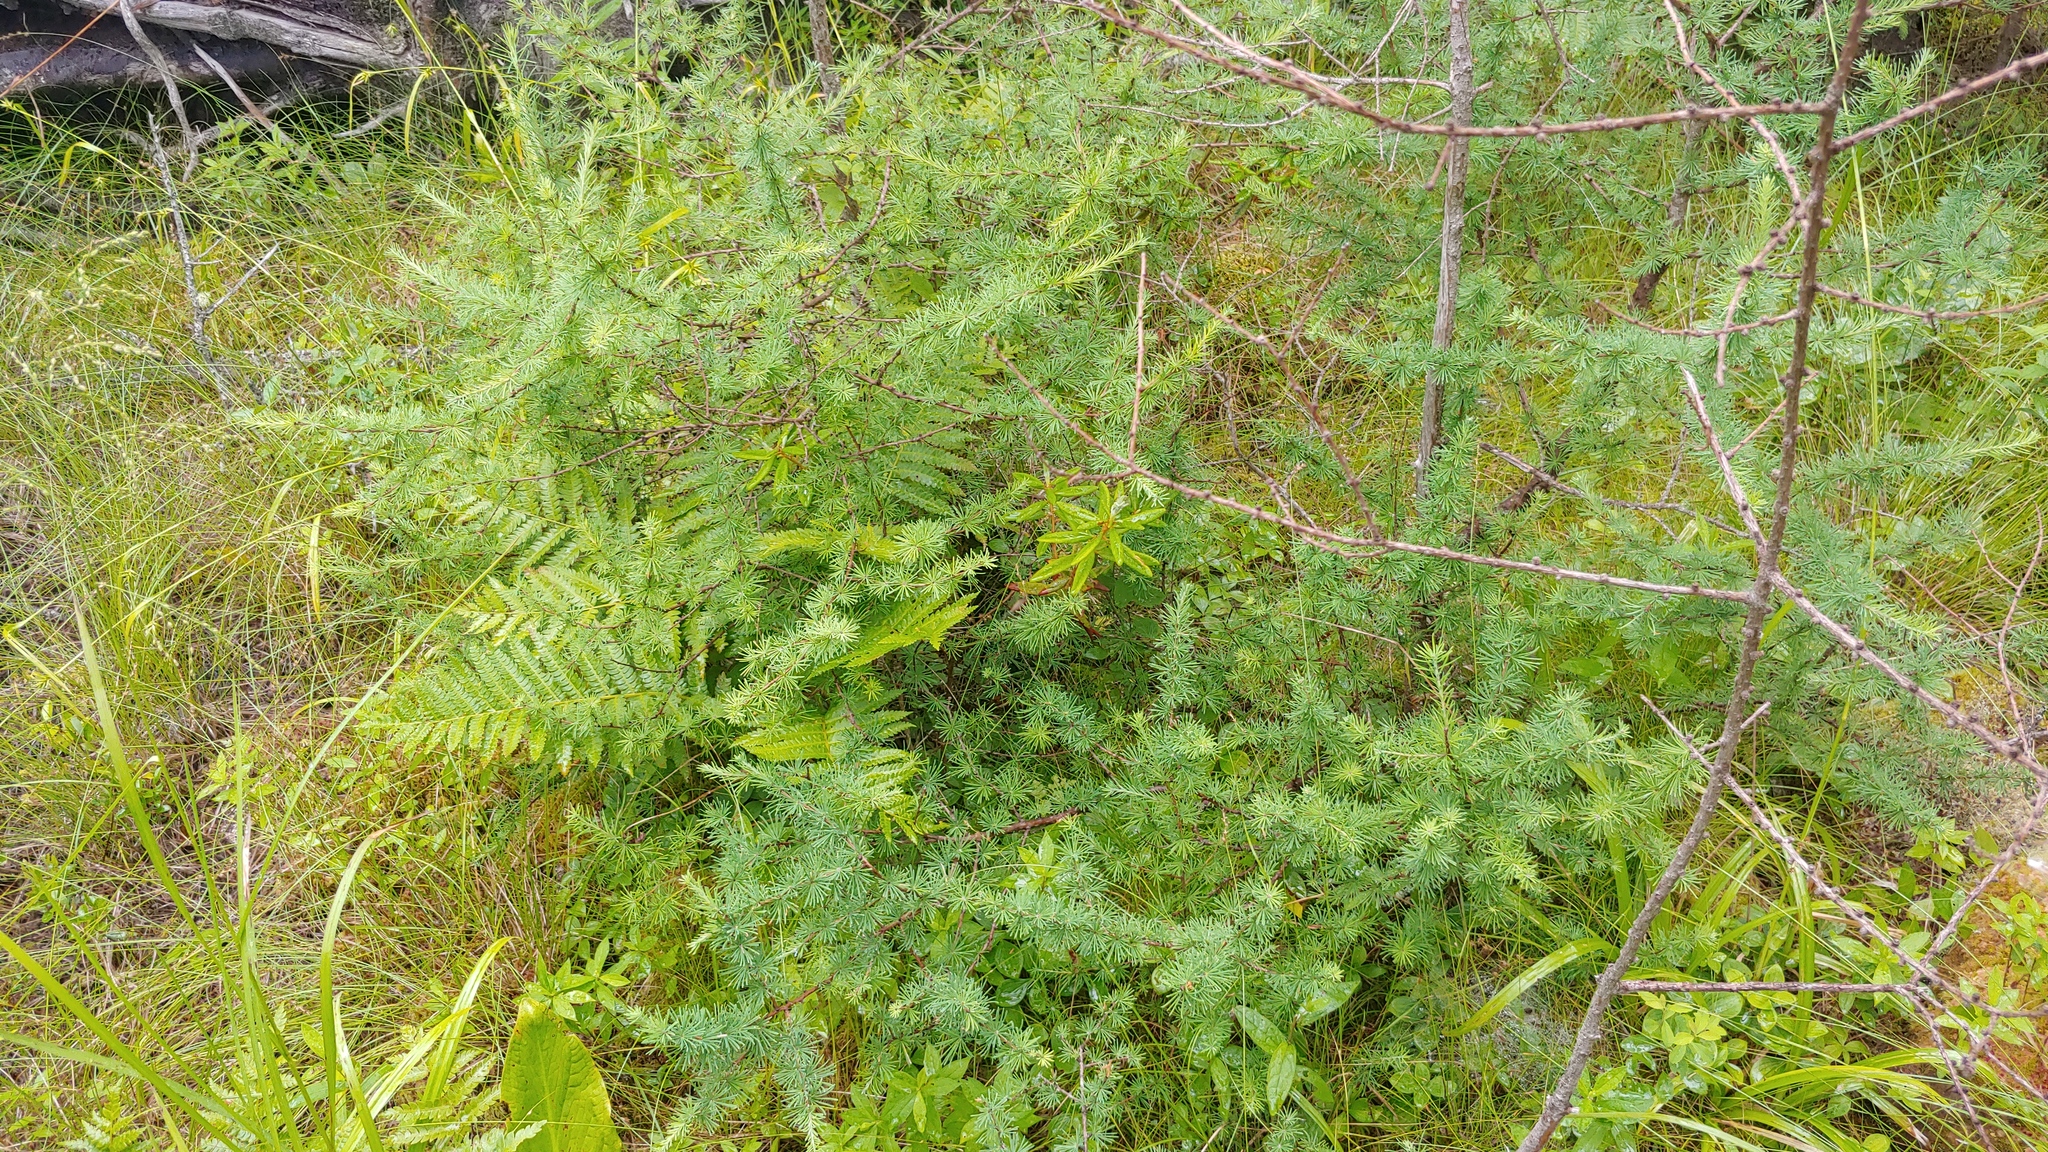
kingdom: Plantae
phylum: Tracheophyta
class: Pinopsida
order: Pinales
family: Pinaceae
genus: Larix
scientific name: Larix laricina
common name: American larch
